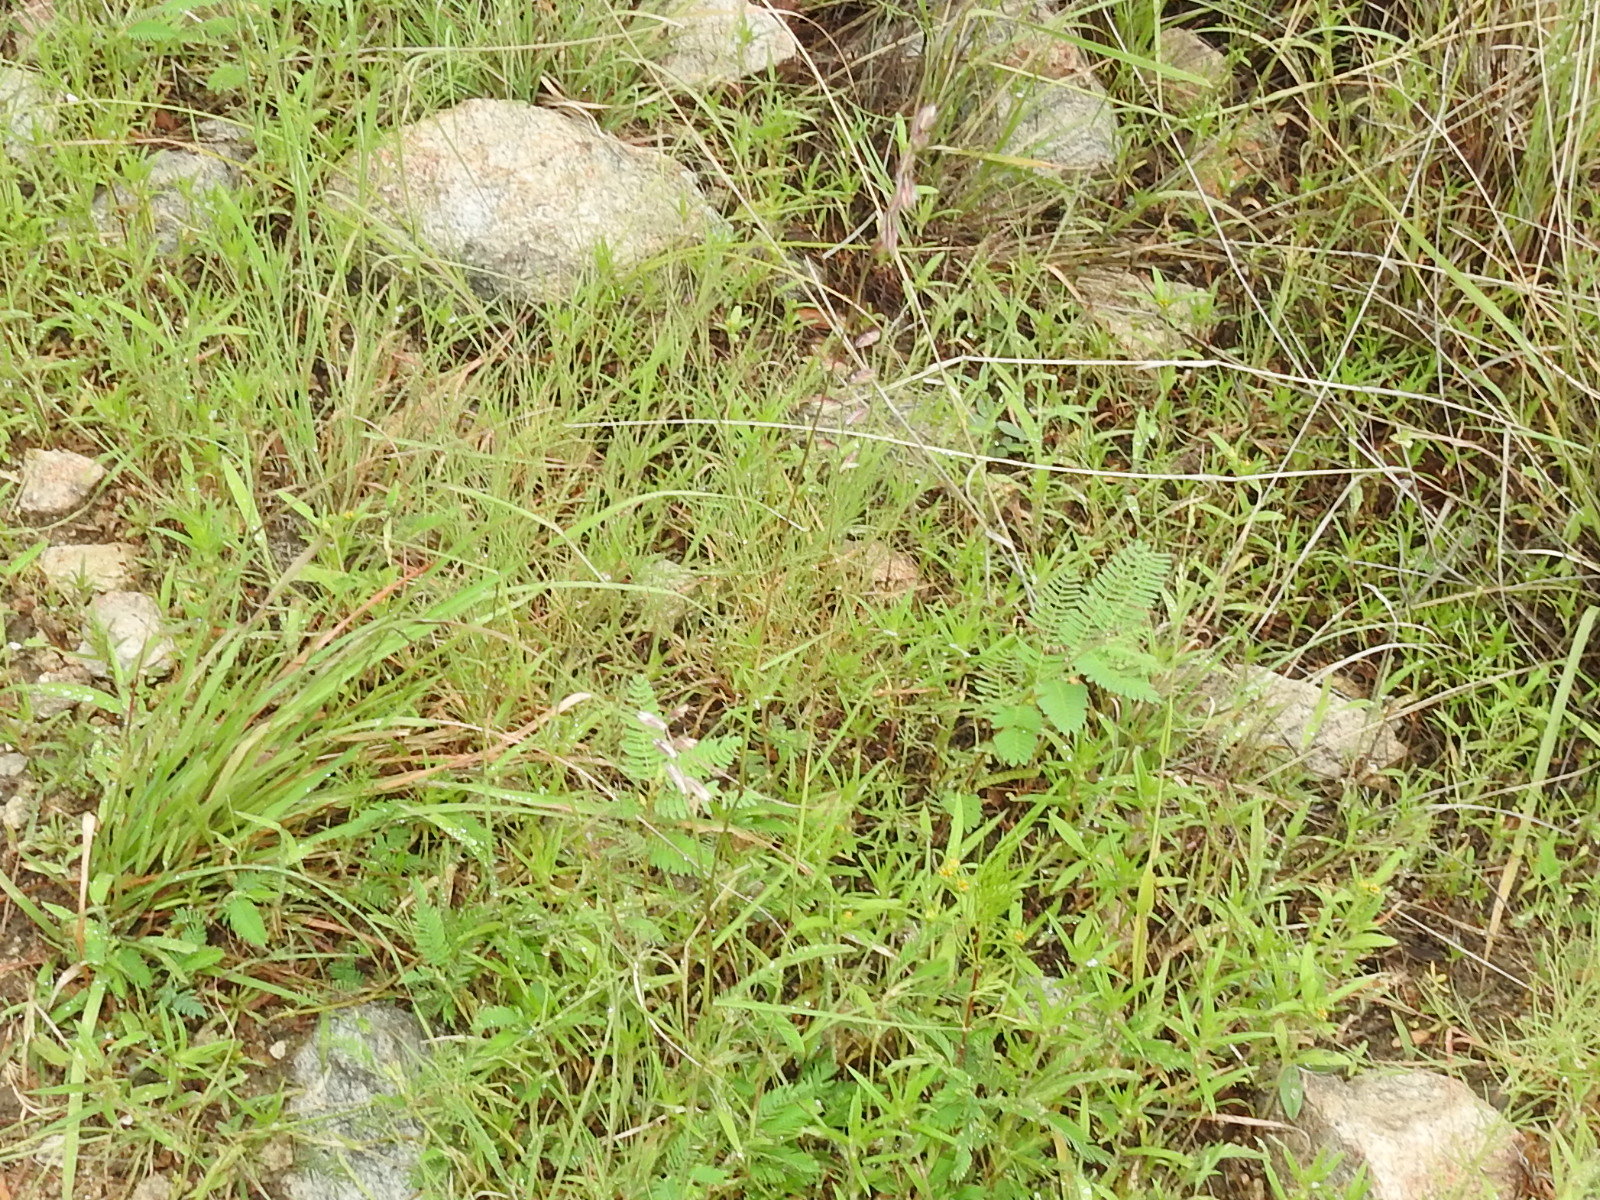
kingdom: Plantae
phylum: Tracheophyta
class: Liliopsida
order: Poales
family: Poaceae
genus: Bouteloua
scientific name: Bouteloua chondrosioides
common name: Sprucetop grama
